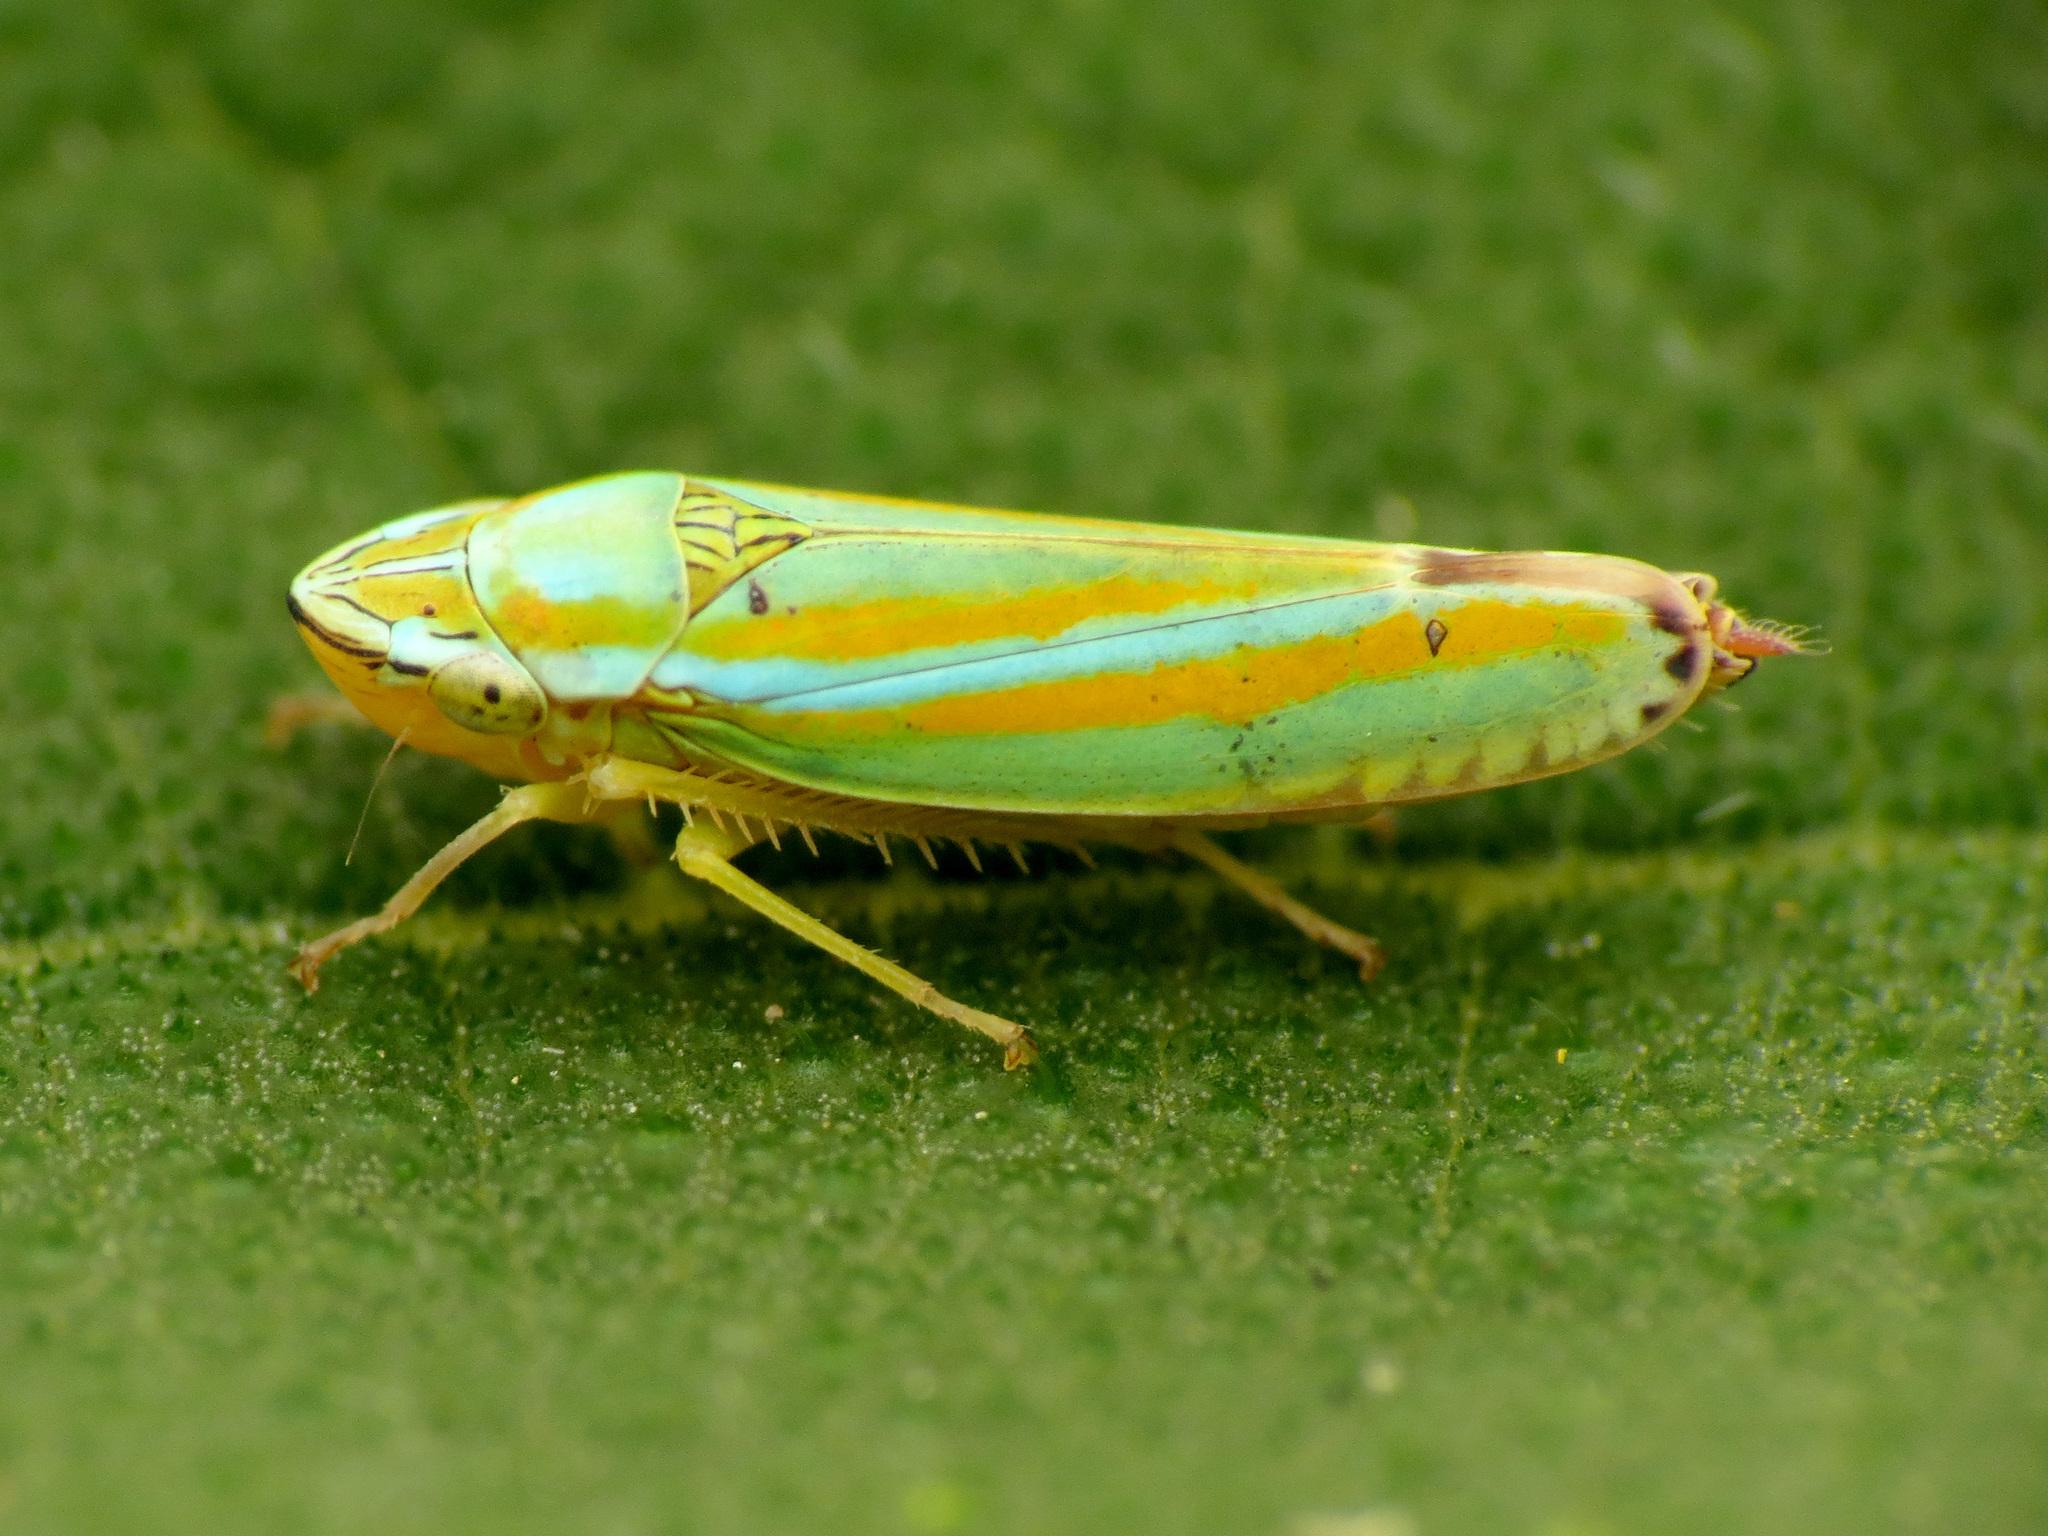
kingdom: Animalia
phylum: Arthropoda
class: Insecta
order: Hemiptera
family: Cicadellidae
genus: Graphocephala
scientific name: Graphocephala versuta
